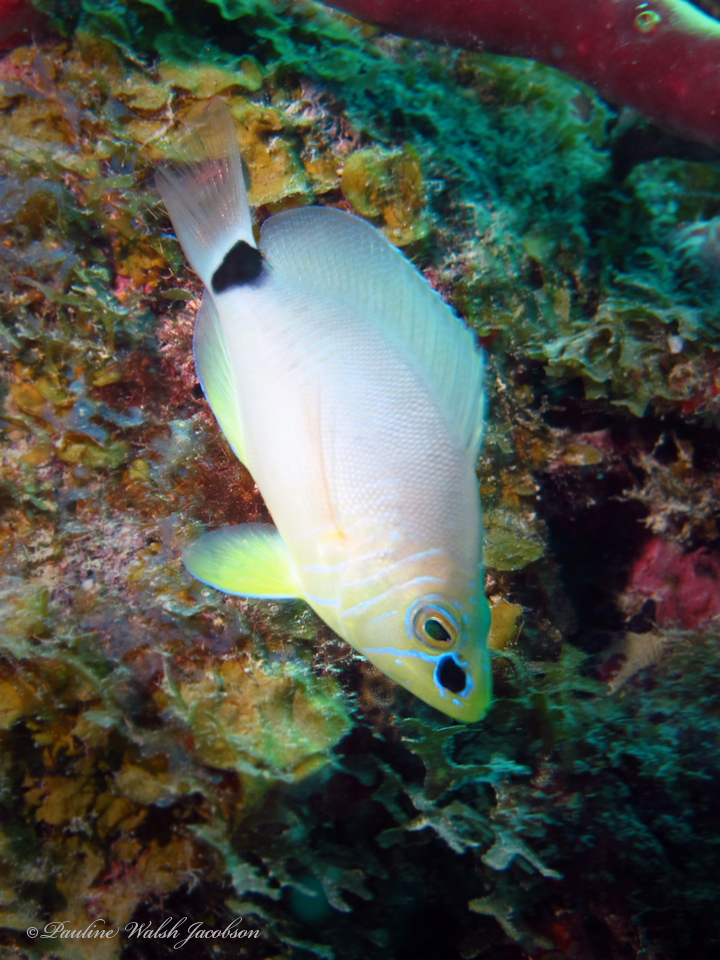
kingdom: Animalia
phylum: Chordata
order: Perciformes
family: Serranidae
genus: Hypoplectrus
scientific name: Hypoplectrus unicolor
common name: Butter hamlet
